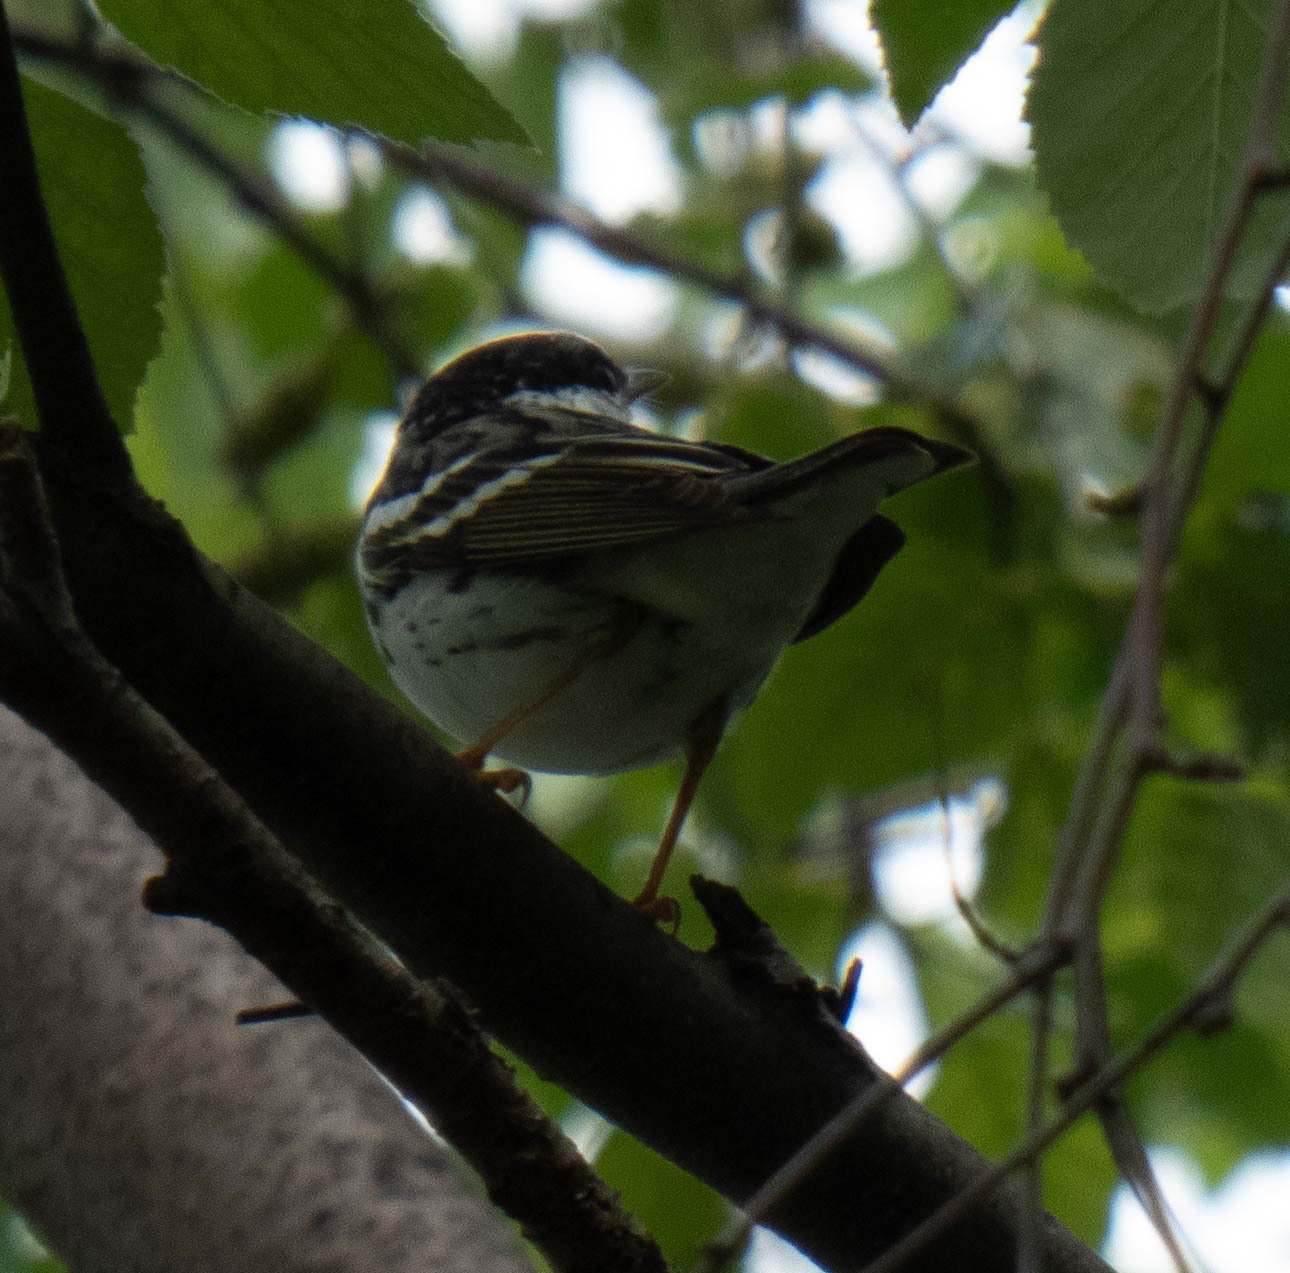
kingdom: Animalia
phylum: Chordata
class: Aves
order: Passeriformes
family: Parulidae
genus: Setophaga
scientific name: Setophaga striata
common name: Blackpoll warbler
